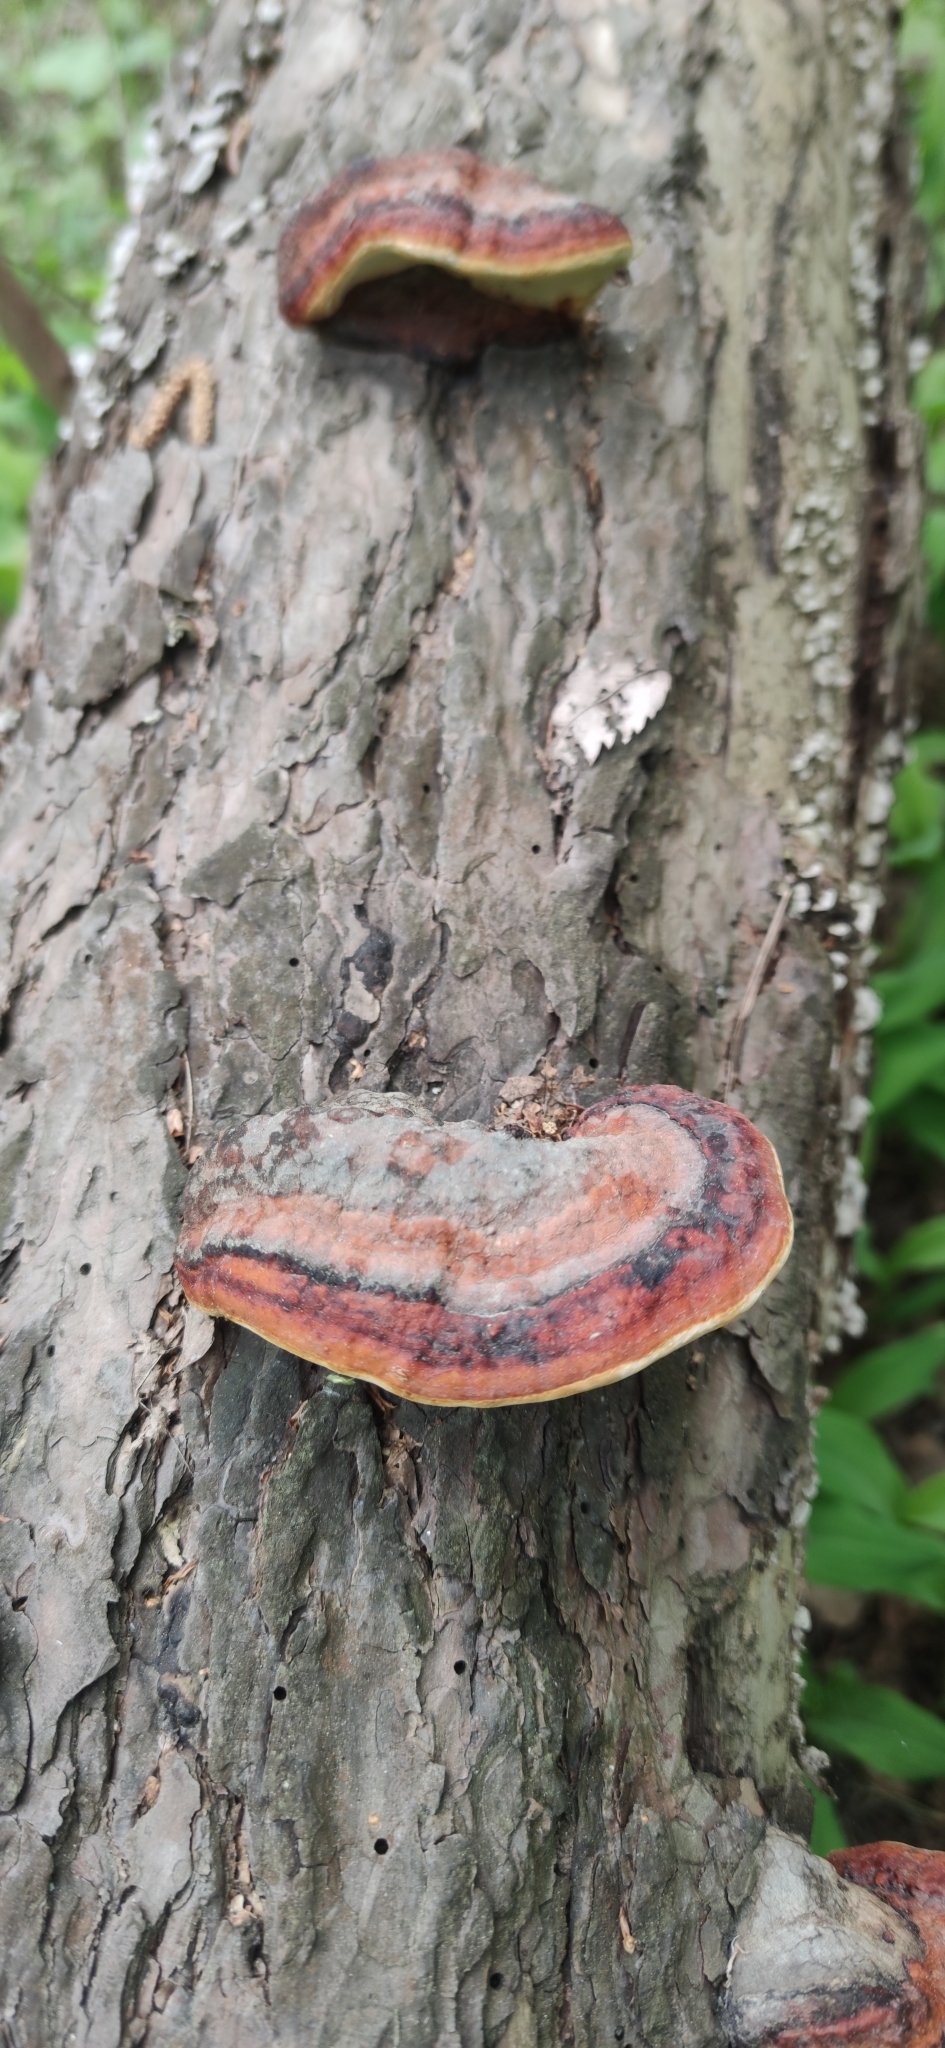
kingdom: Fungi
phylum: Basidiomycota
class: Agaricomycetes
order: Polyporales
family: Fomitopsidaceae
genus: Fomitopsis
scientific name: Fomitopsis pinicola
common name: Red-belted bracket
